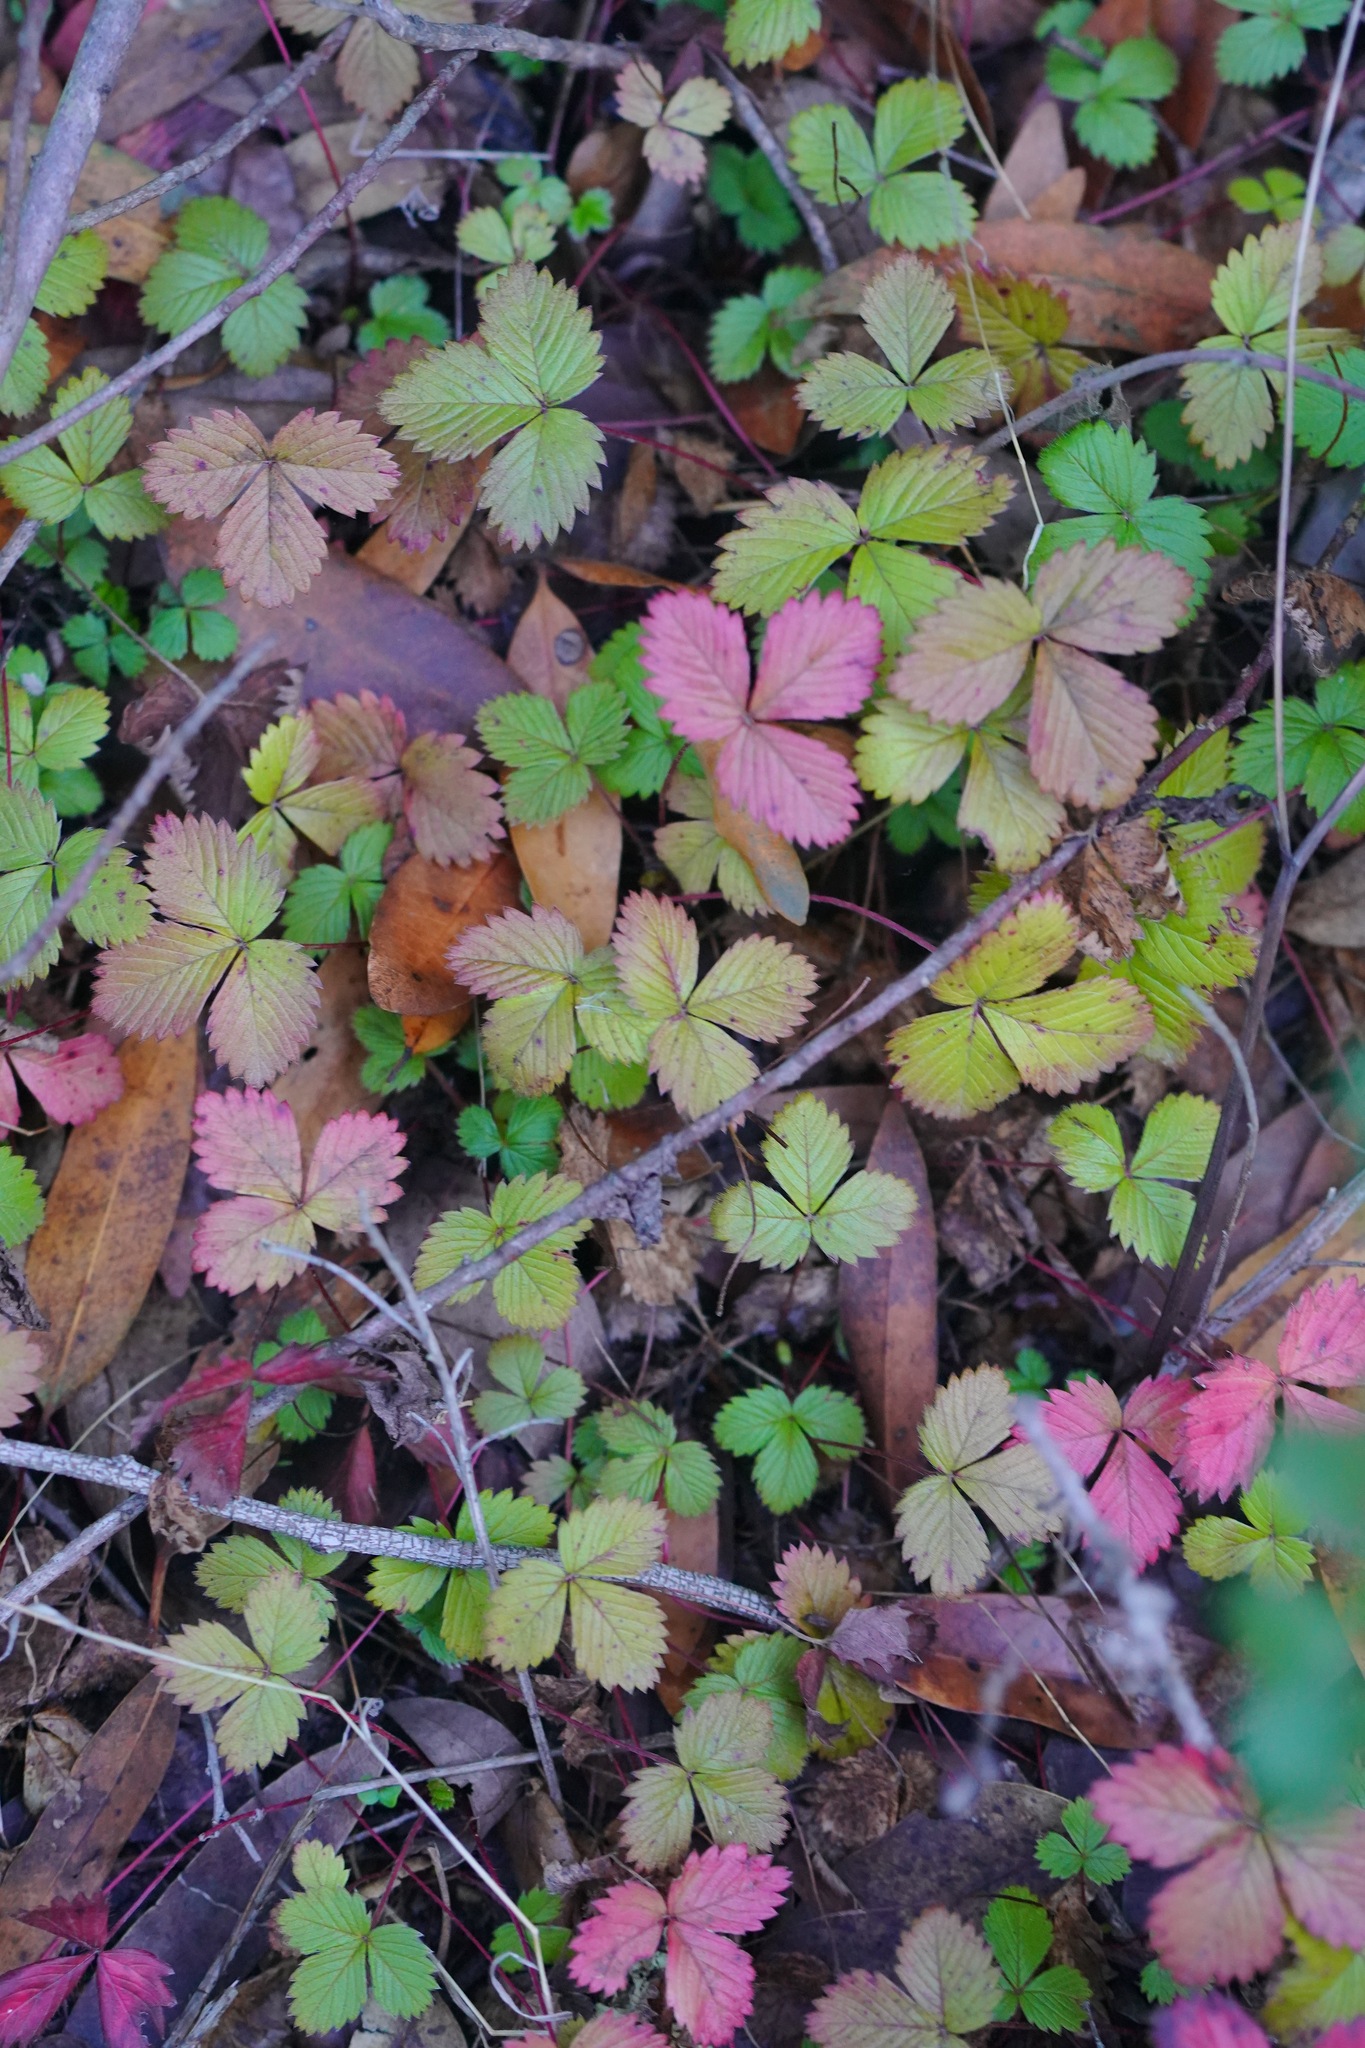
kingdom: Plantae
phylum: Tracheophyta
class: Magnoliopsida
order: Rosales
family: Rosaceae
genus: Fragaria
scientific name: Fragaria vesca
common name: Wild strawberry
